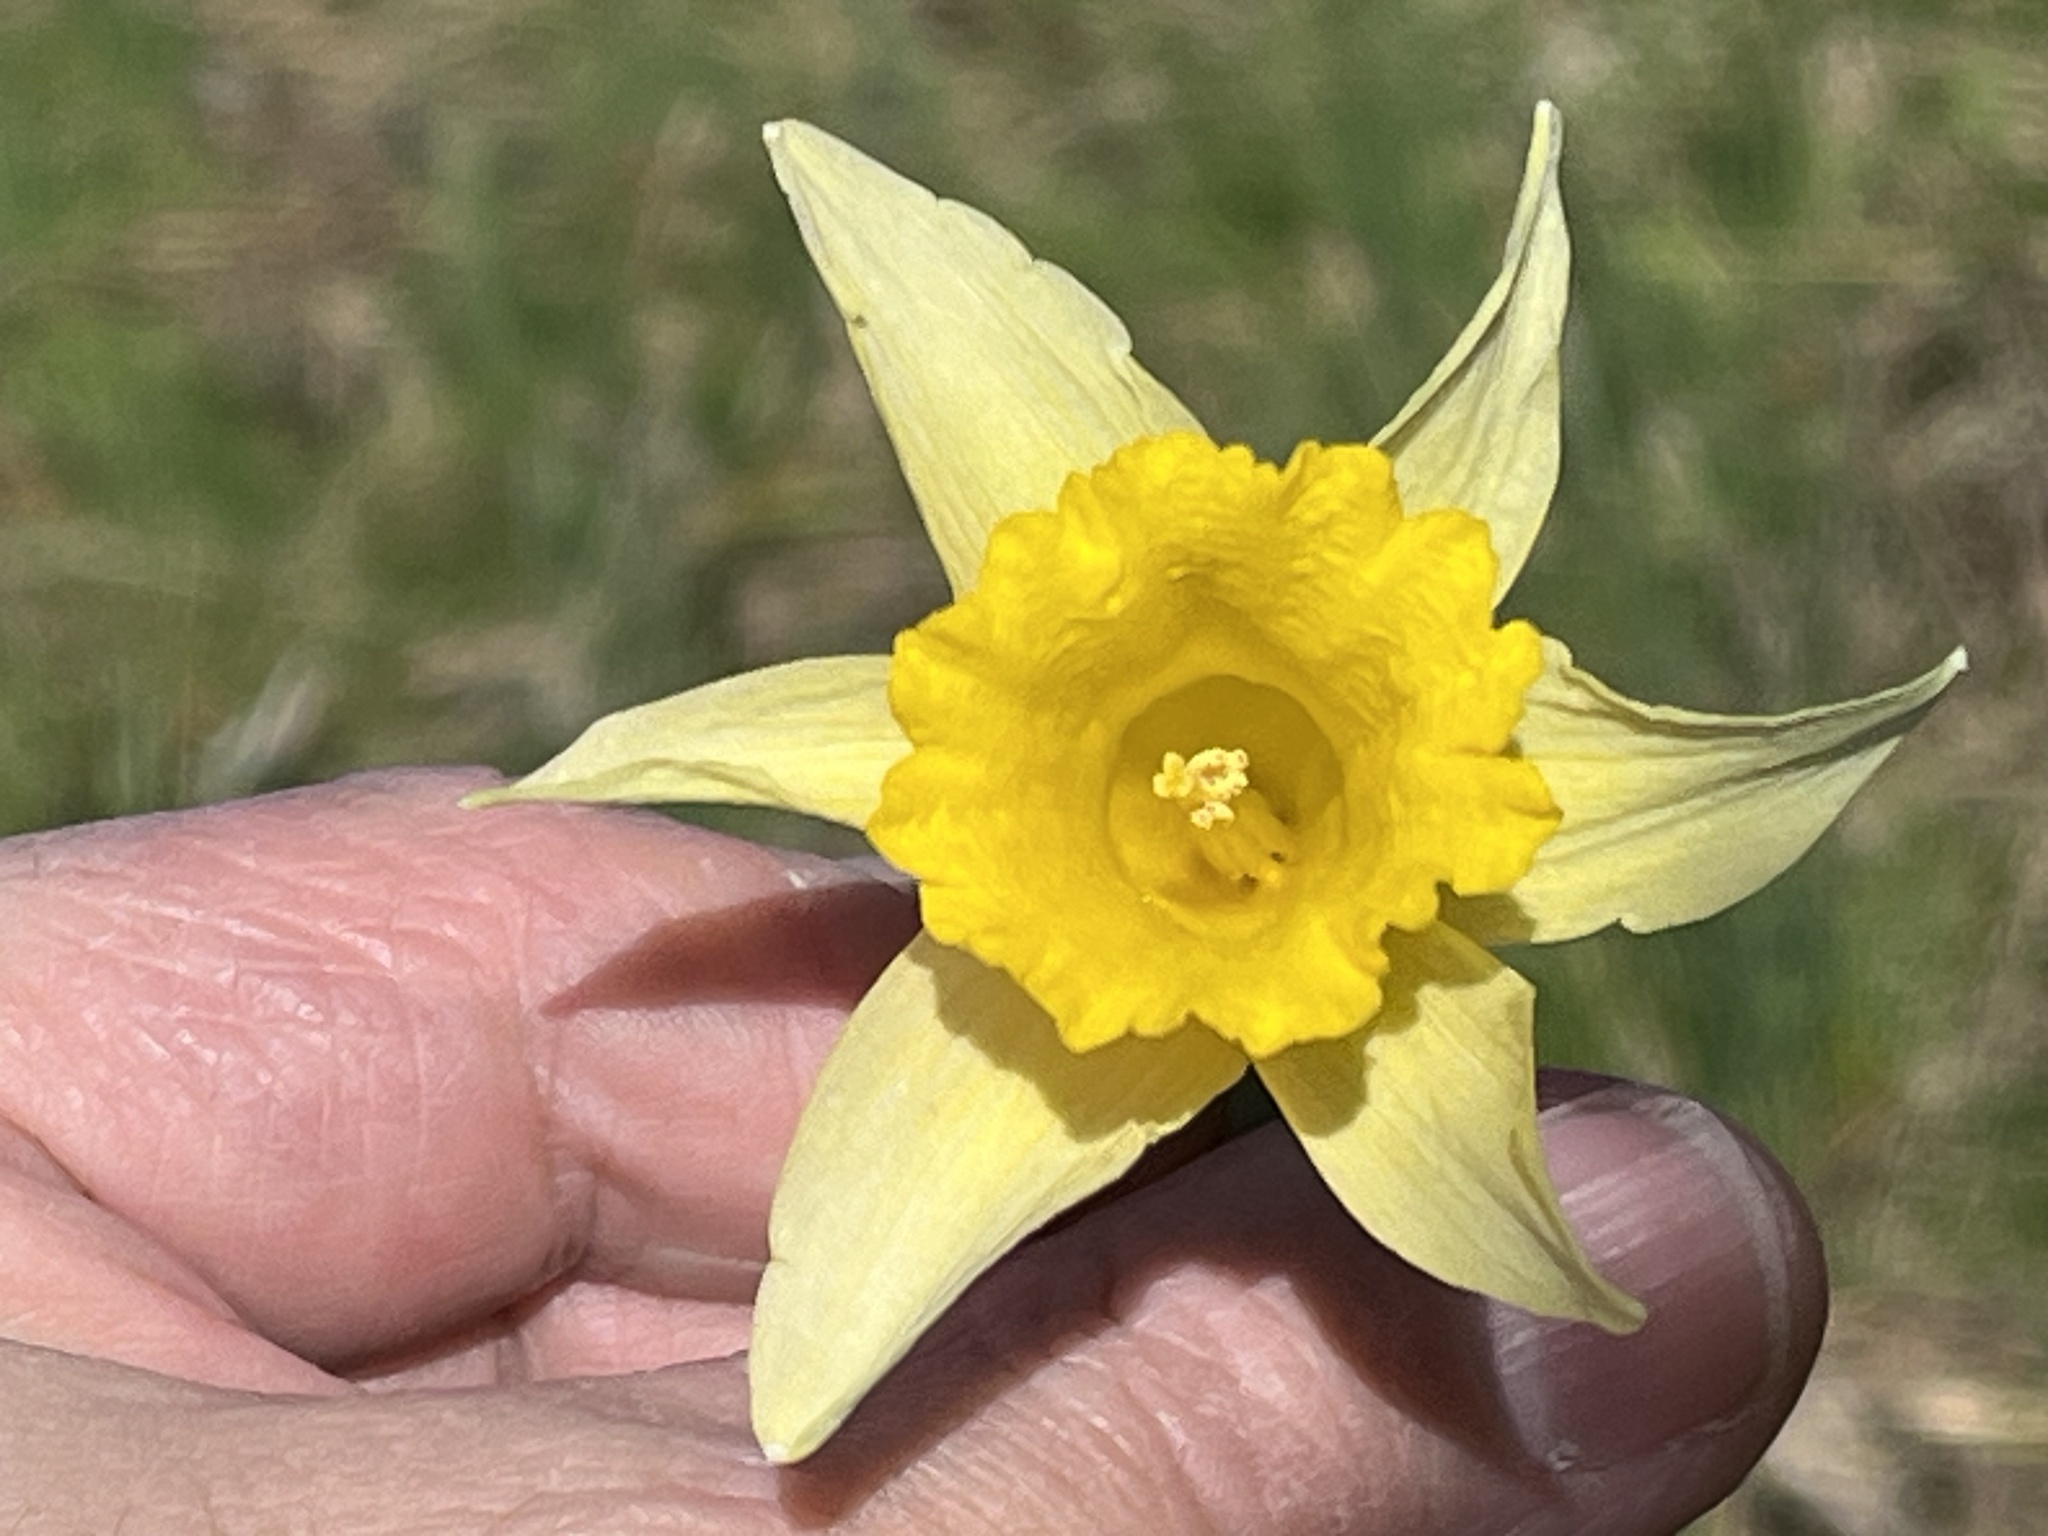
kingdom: Plantae
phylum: Tracheophyta
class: Liliopsida
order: Asparagales
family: Amaryllidaceae
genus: Narcissus
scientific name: Narcissus pseudonarcissus
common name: Daffodil
